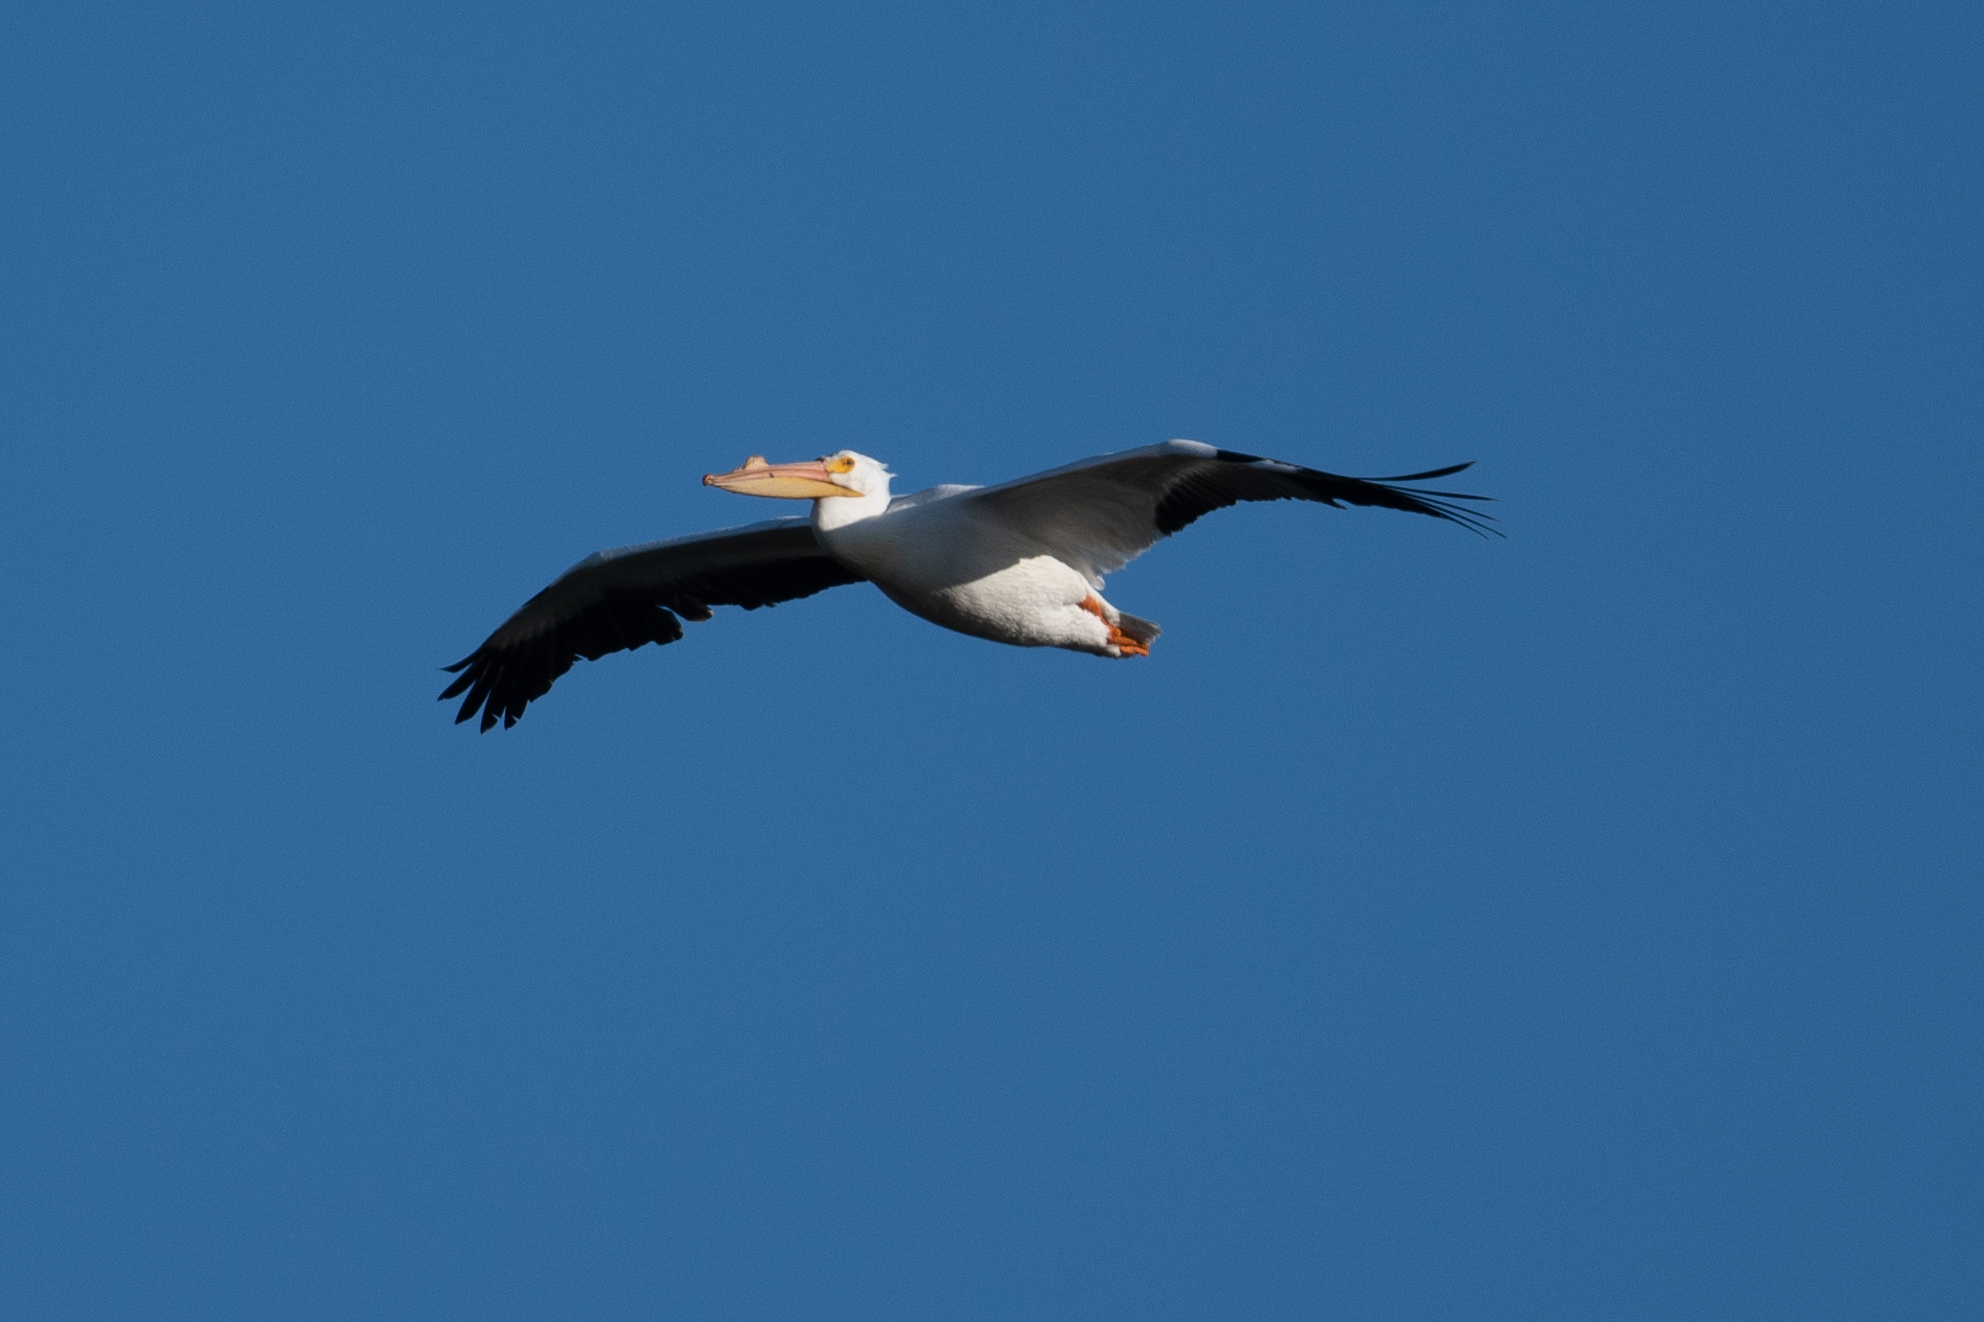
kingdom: Animalia
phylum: Chordata
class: Aves
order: Pelecaniformes
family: Pelecanidae
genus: Pelecanus
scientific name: Pelecanus erythrorhynchos
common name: American white pelican
